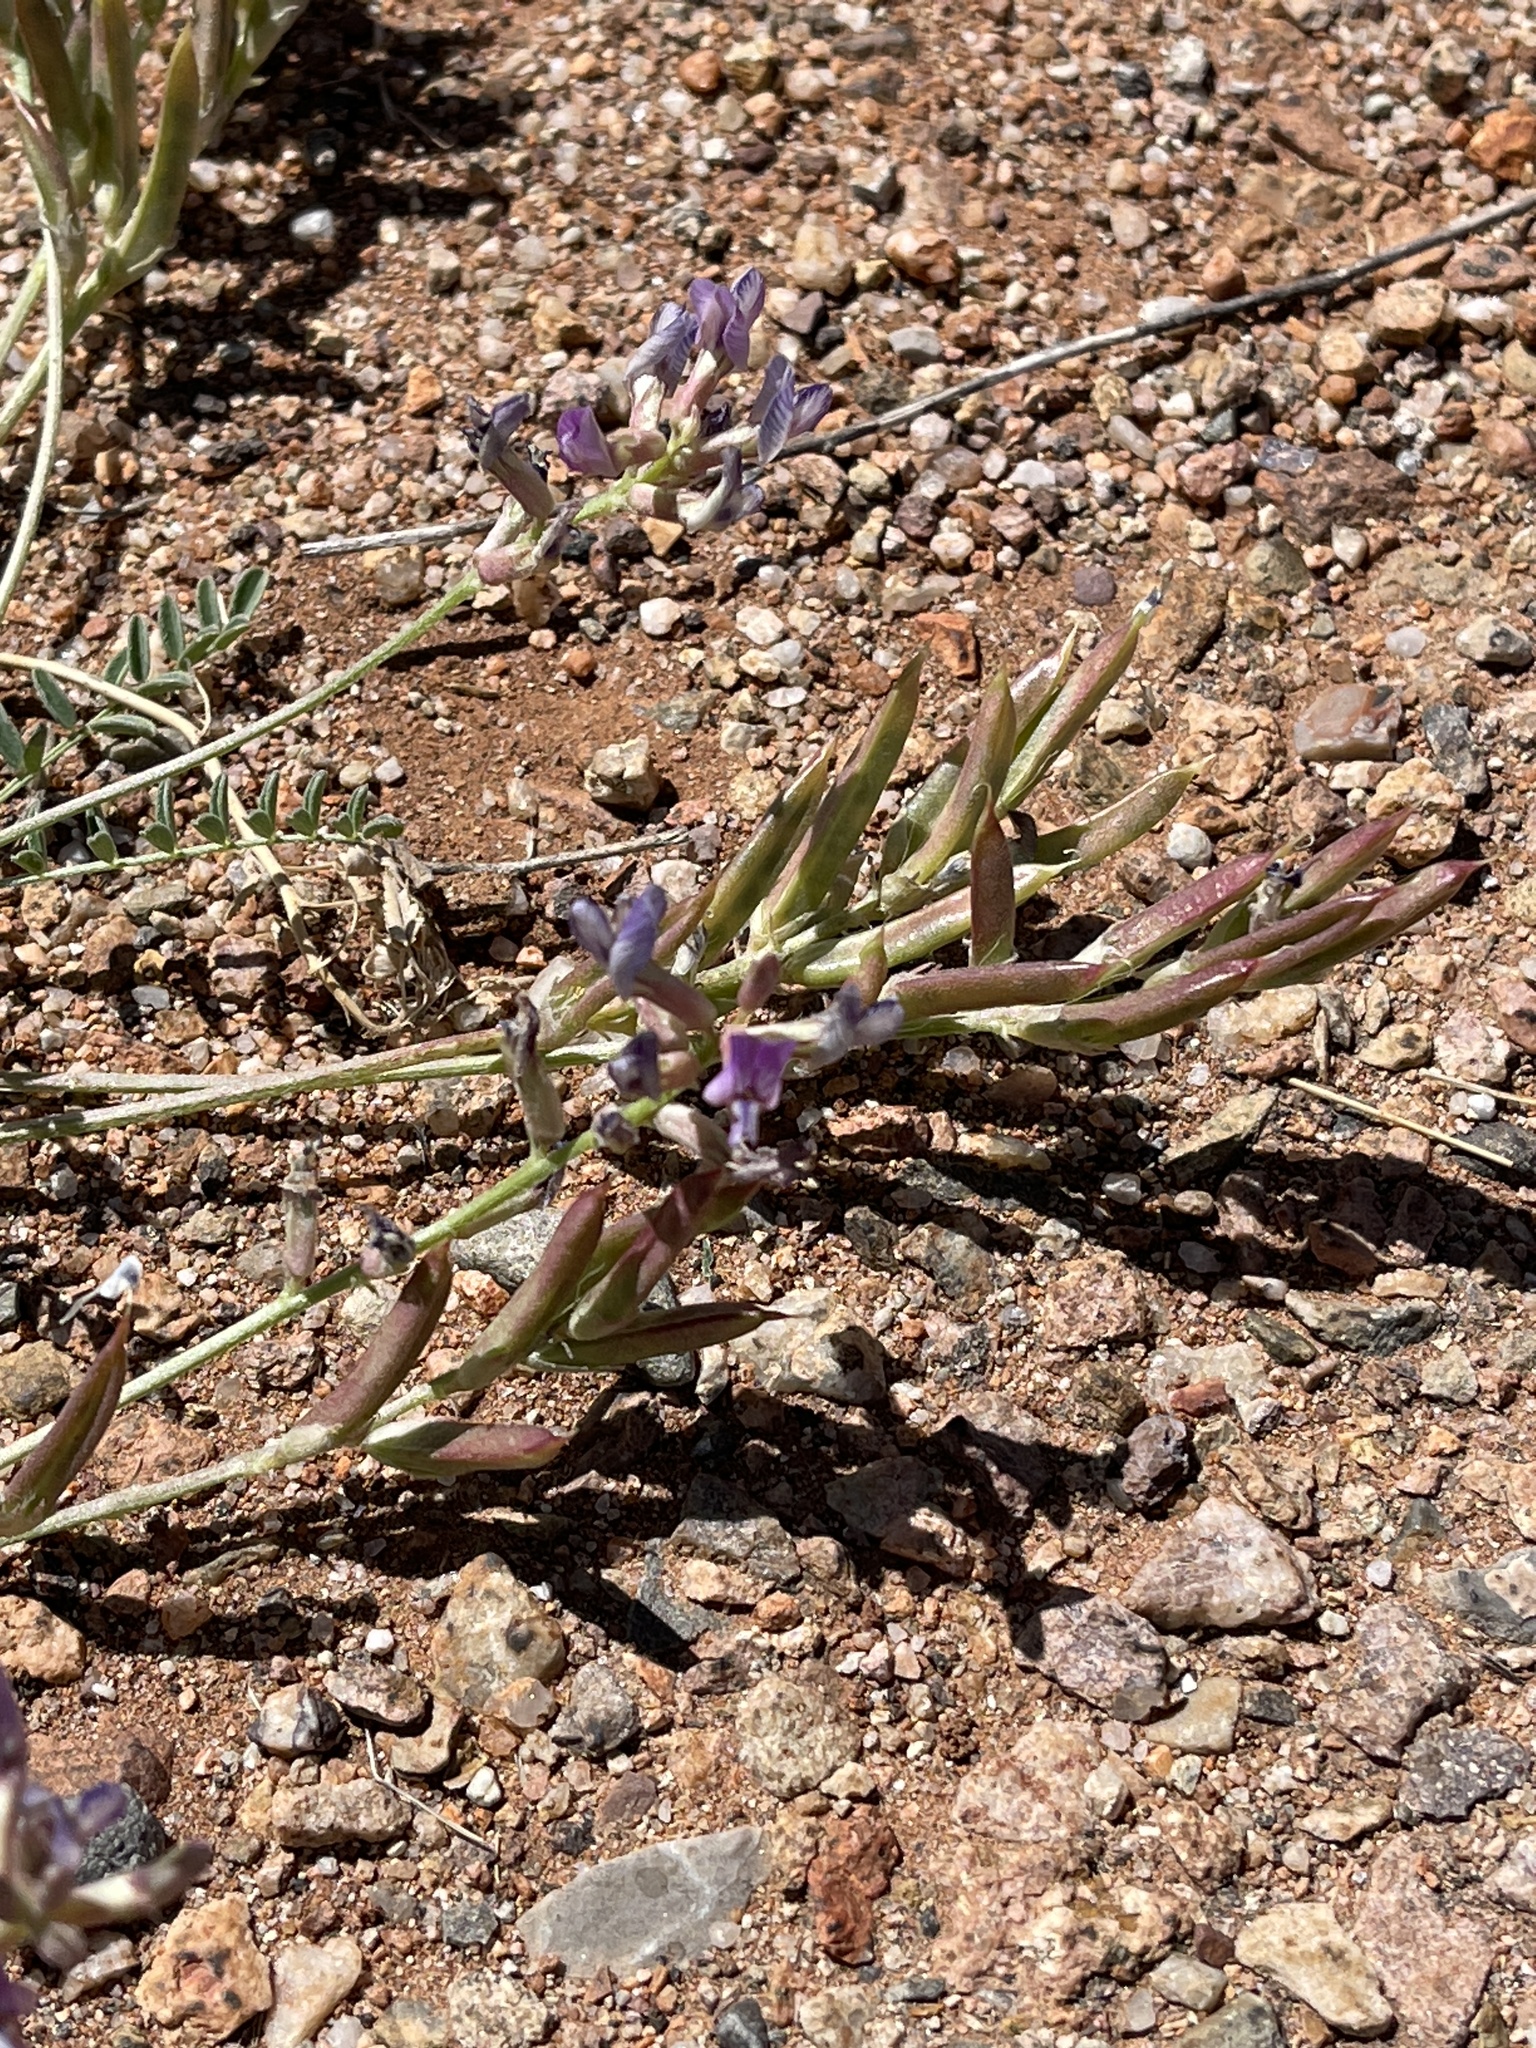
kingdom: Plantae
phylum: Tracheophyta
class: Magnoliopsida
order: Fabales
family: Fabaceae
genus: Astragalus
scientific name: Astragalus nothoxys
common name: Beaked milk-vetch
